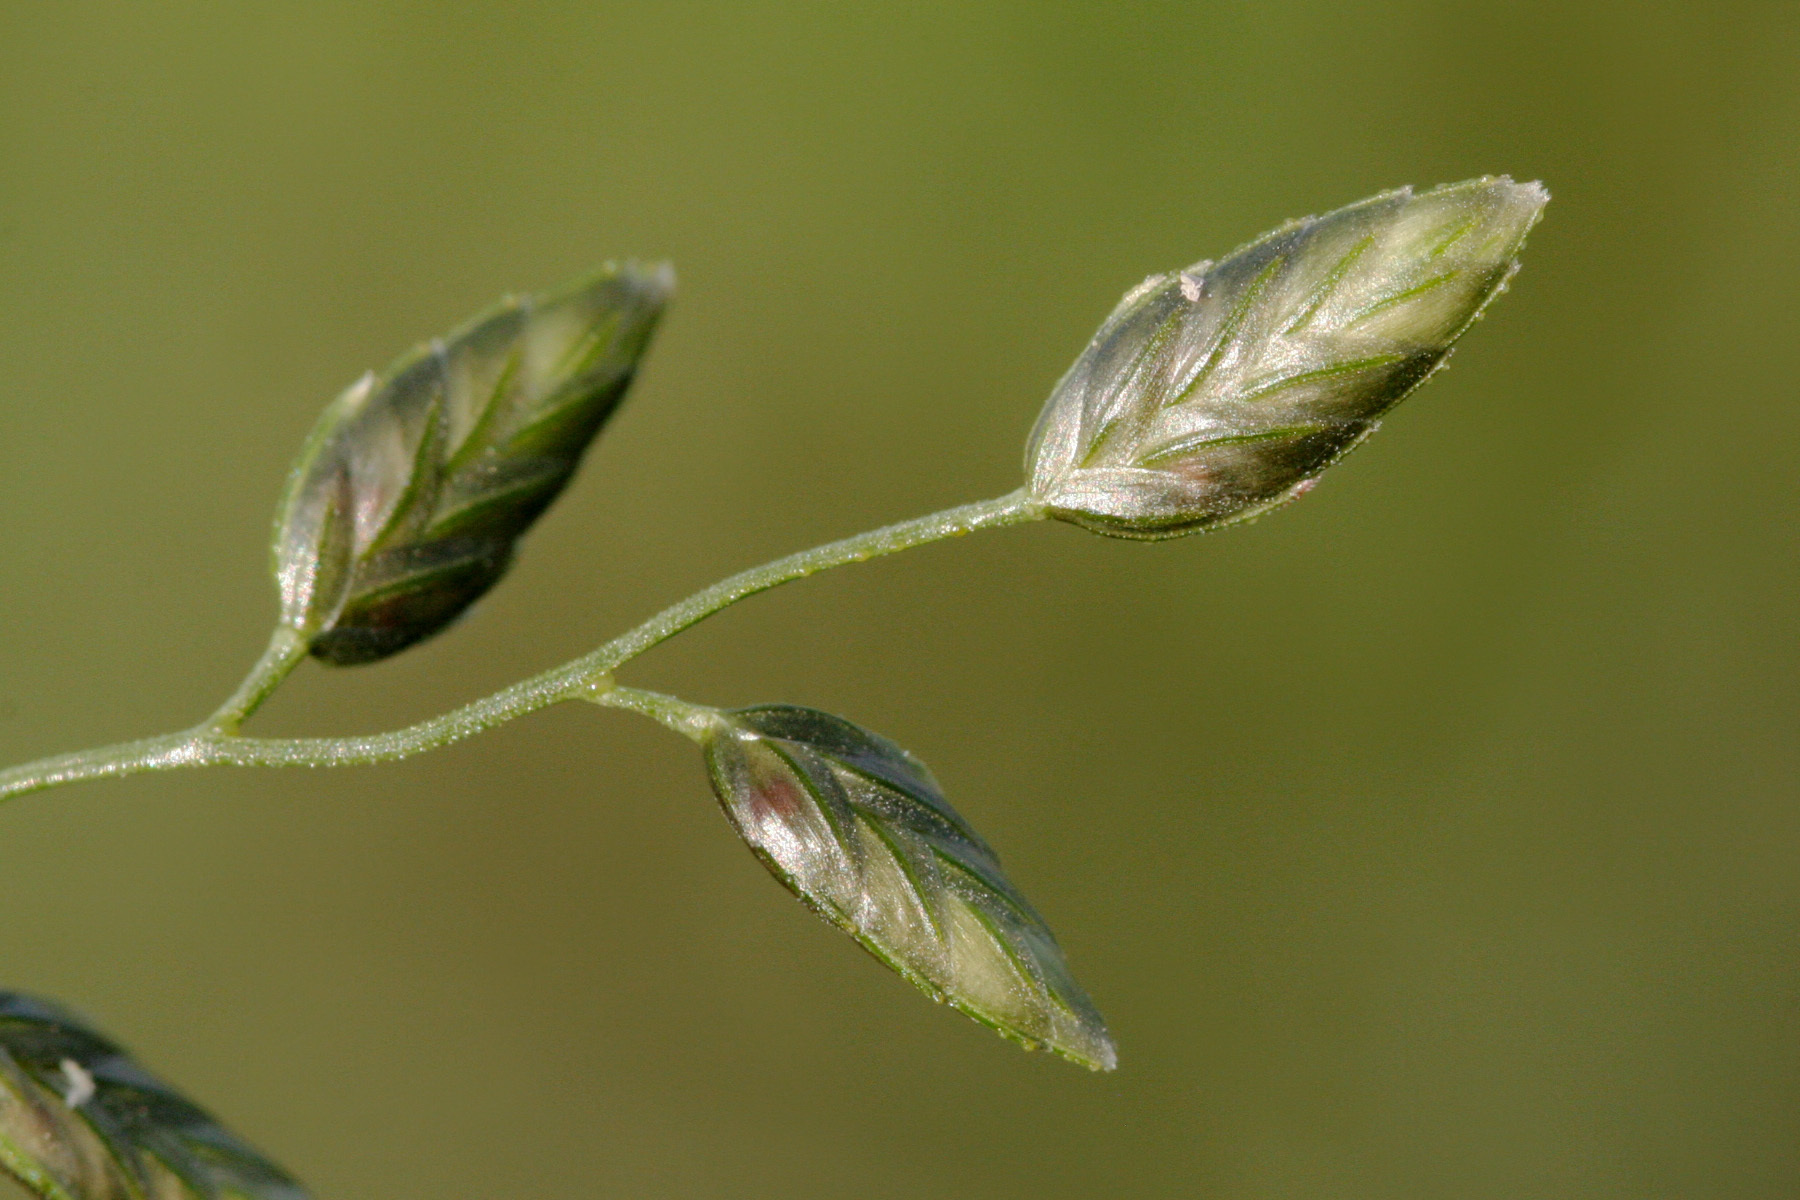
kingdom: Plantae
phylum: Tracheophyta
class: Liliopsida
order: Poales
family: Poaceae
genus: Eragrostis
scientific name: Eragrostis cilianensis
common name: Stinkgrass
